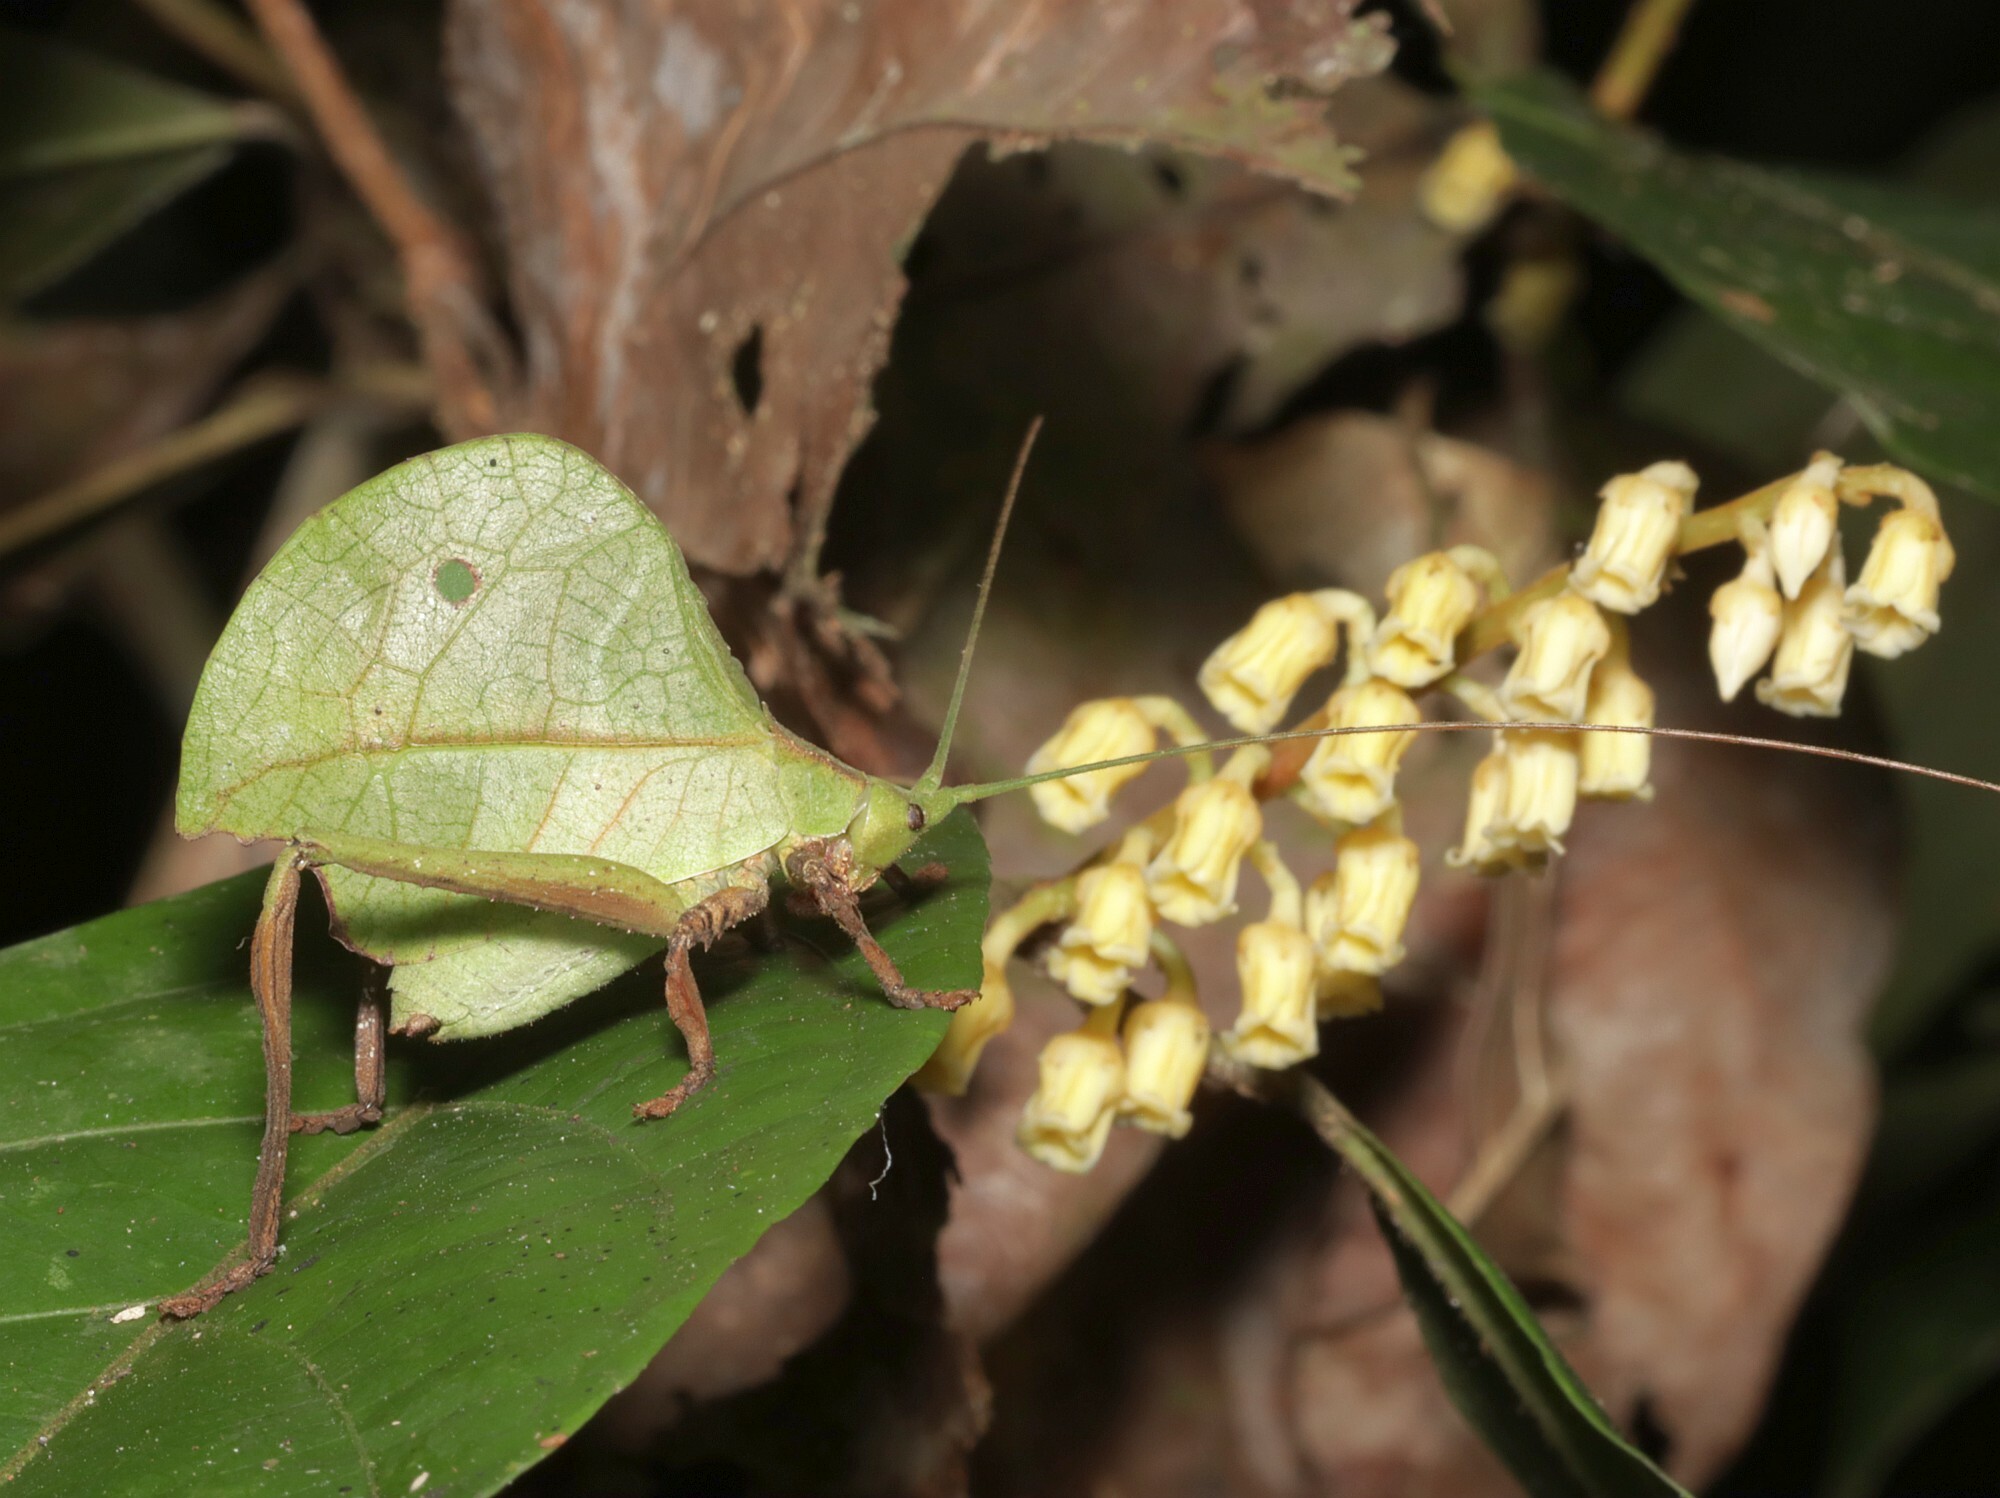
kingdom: Animalia
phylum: Arthropoda
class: Insecta
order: Orthoptera
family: Tettigoniidae
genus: Typophyllum
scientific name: Typophyllum mortuifolium
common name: Common little walking leaf
